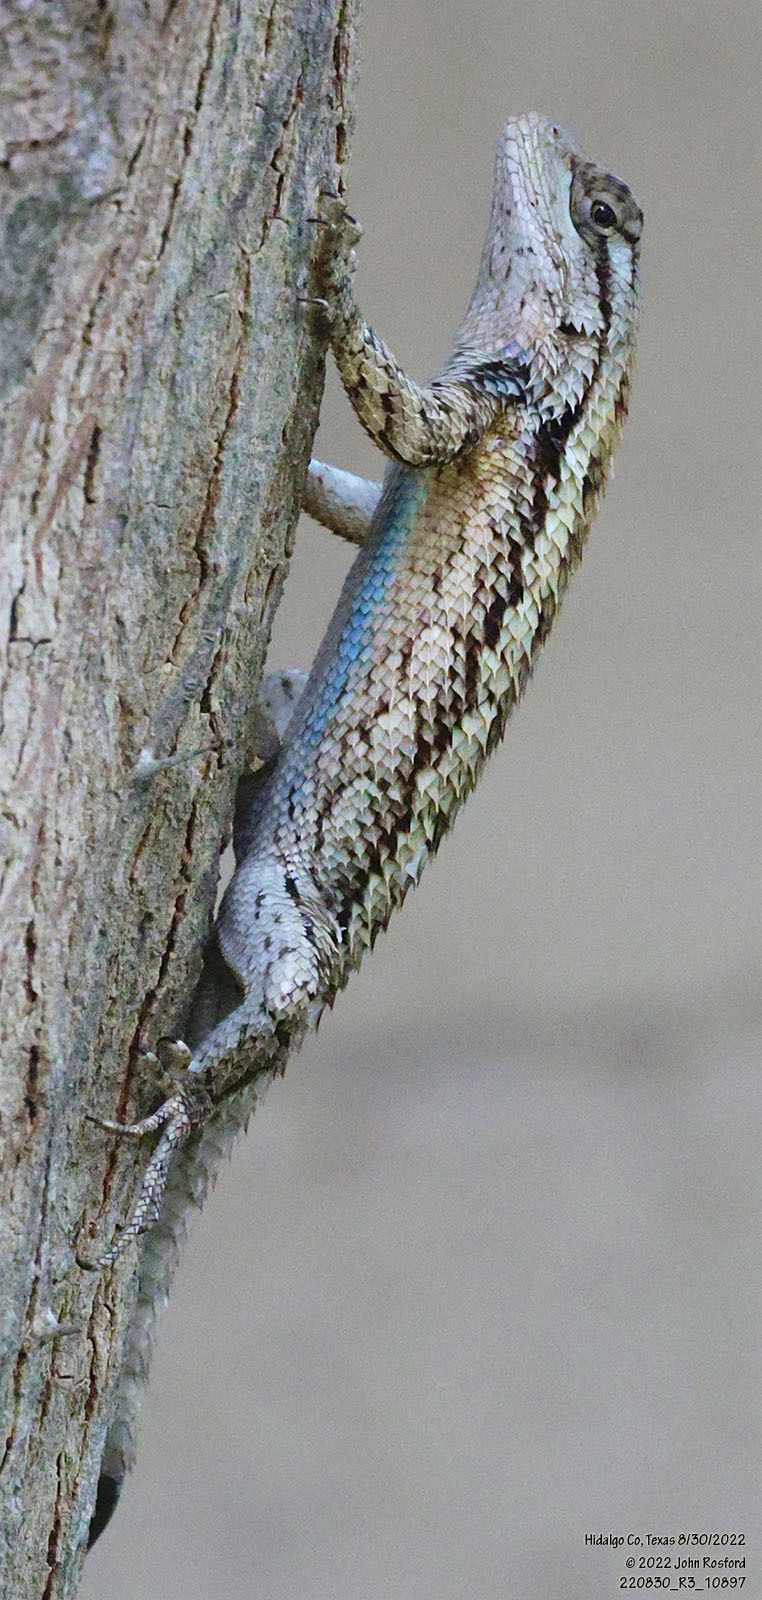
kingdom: Animalia
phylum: Chordata
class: Squamata
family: Phrynosomatidae
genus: Sceloporus
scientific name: Sceloporus olivaceus
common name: Texas spiny lizard
